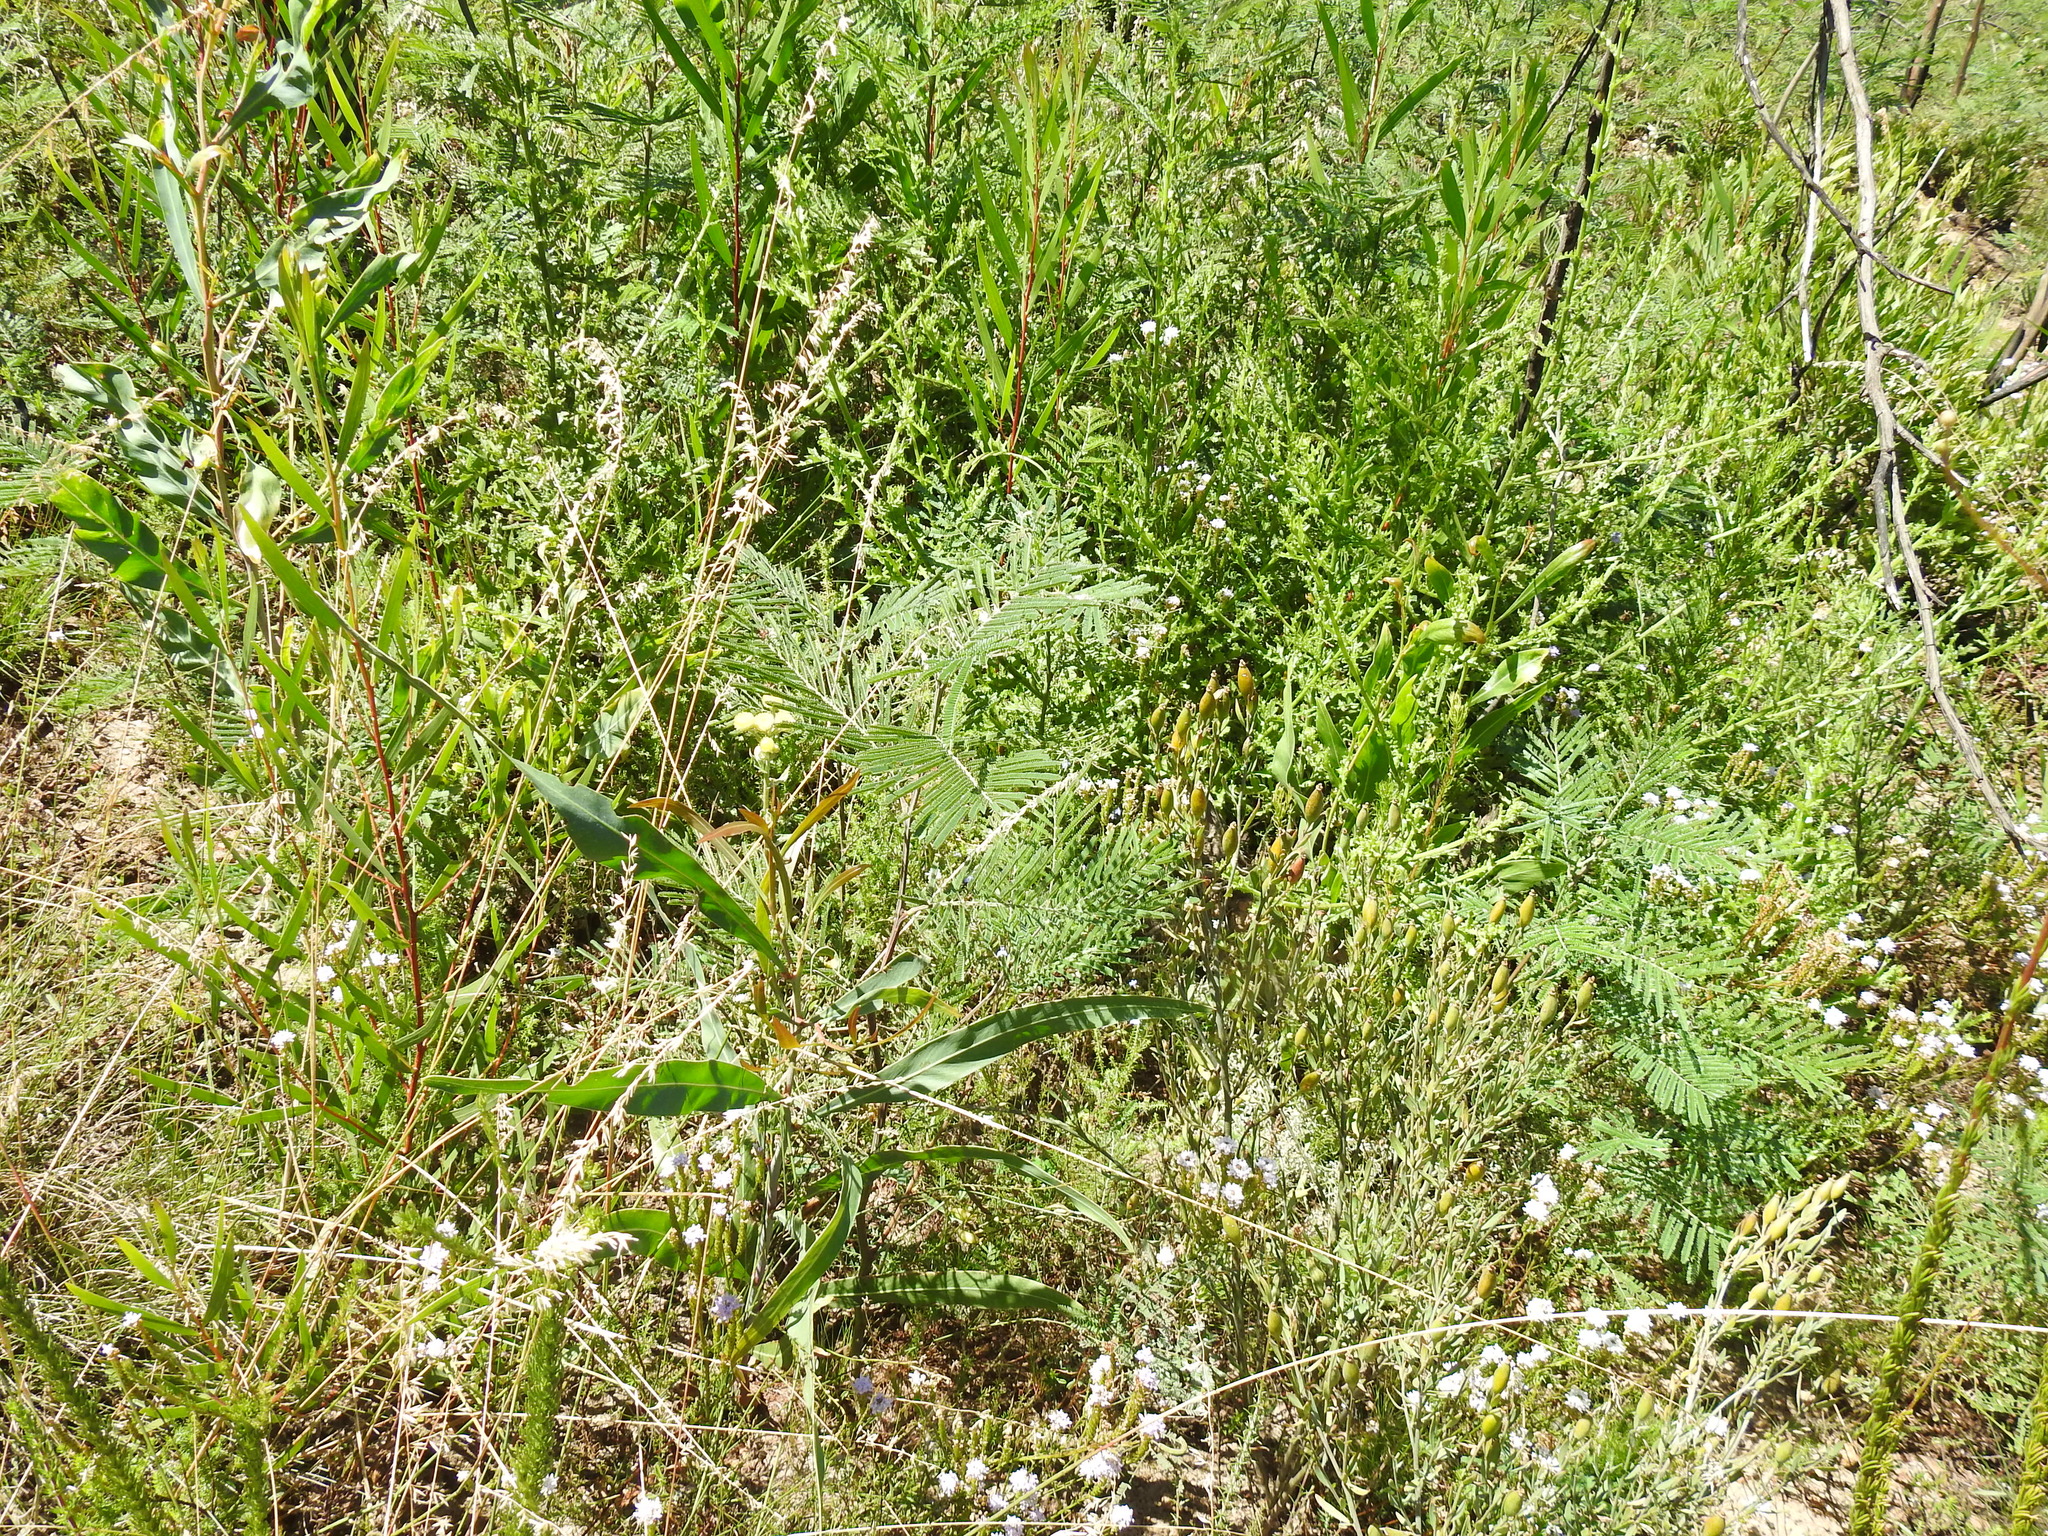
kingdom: Plantae
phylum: Tracheophyta
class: Magnoliopsida
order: Fabales
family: Fabaceae
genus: Acacia
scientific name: Acacia mearnsii
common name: Black wattle
